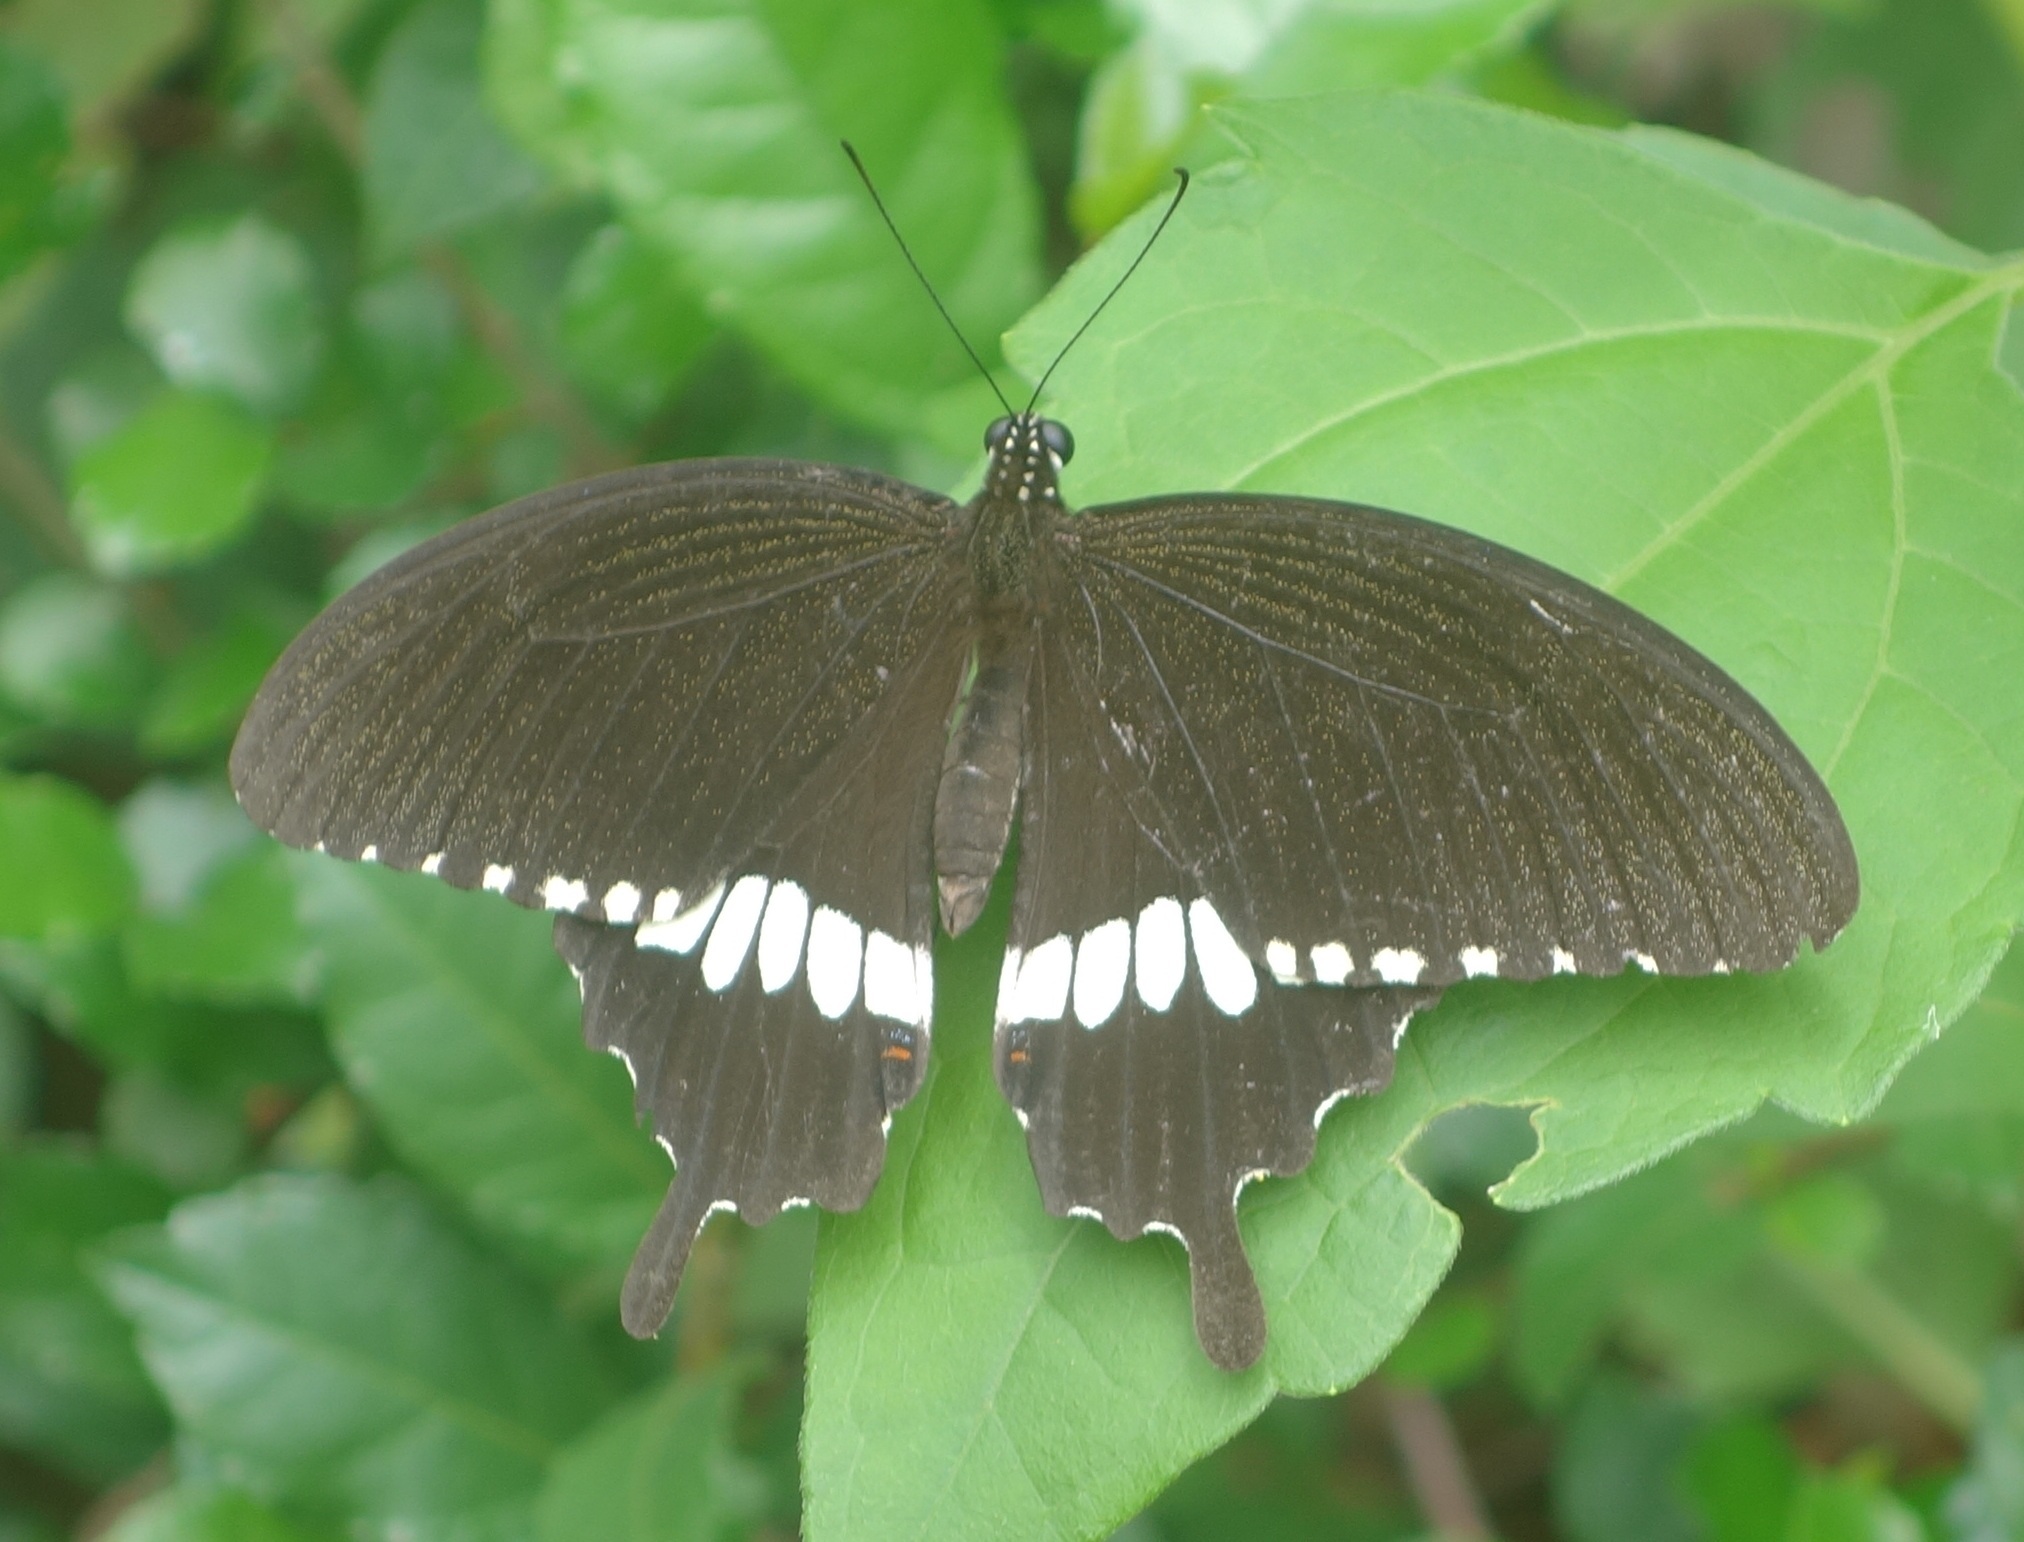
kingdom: Animalia
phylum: Arthropoda
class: Insecta
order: Lepidoptera
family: Papilionidae
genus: Papilio
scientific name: Papilio polytes
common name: Common mormon
